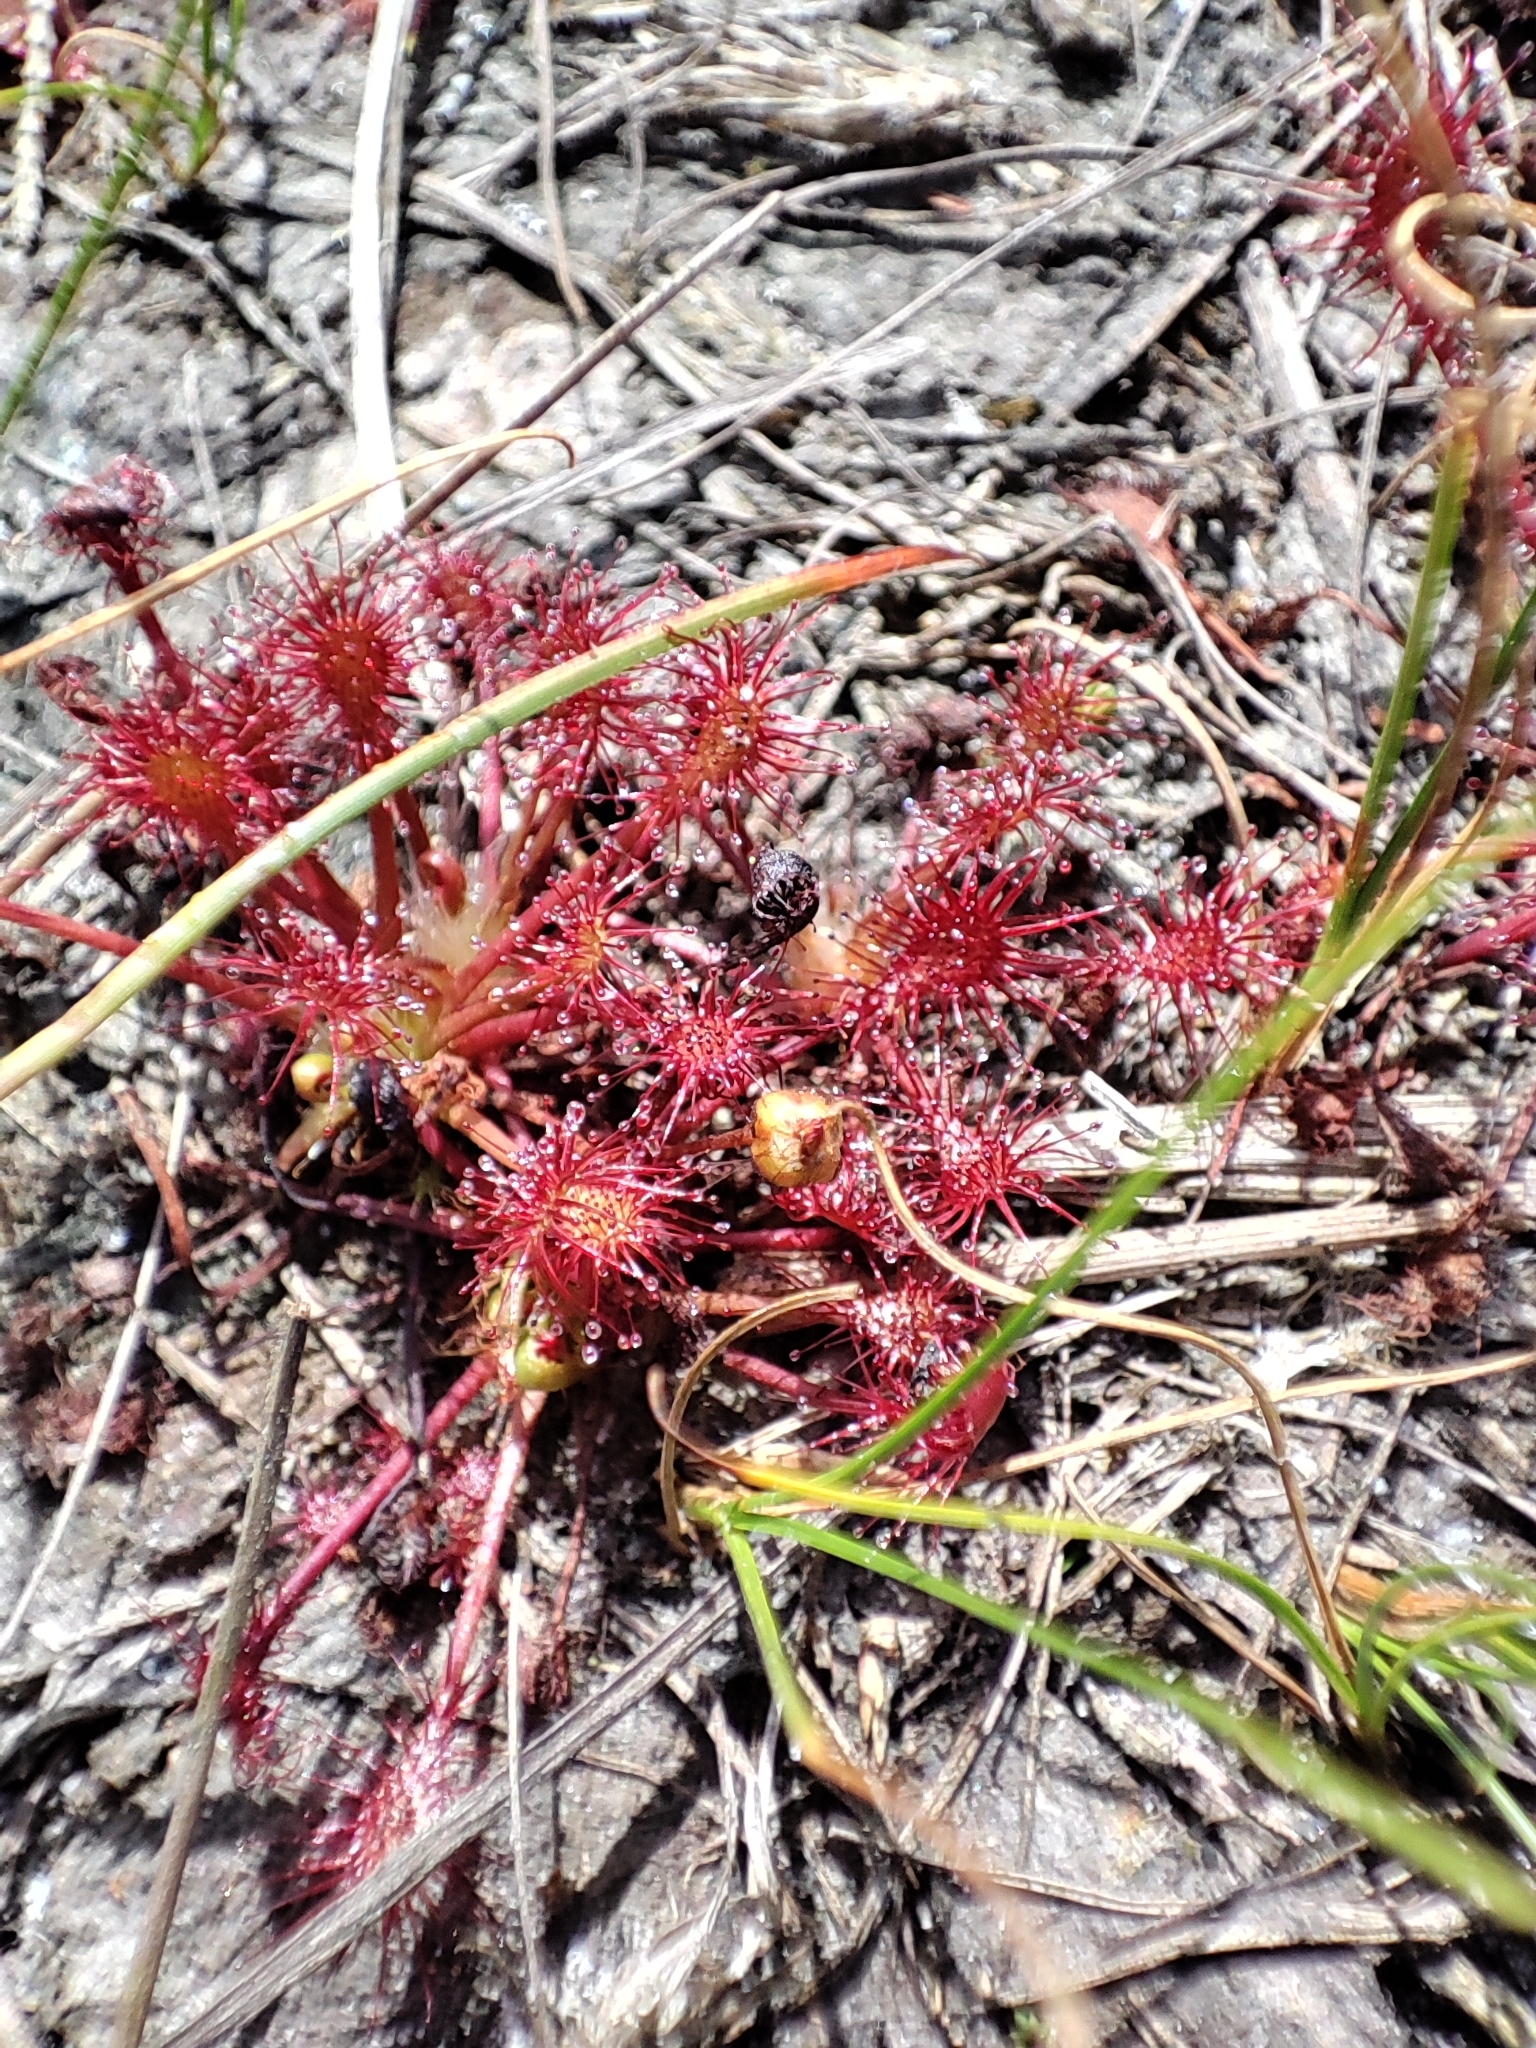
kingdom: Plantae
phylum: Tracheophyta
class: Magnoliopsida
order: Caryophyllales
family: Droseraceae
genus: Drosera
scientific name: Drosera intermedia
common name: Oblong-leaved sundew
